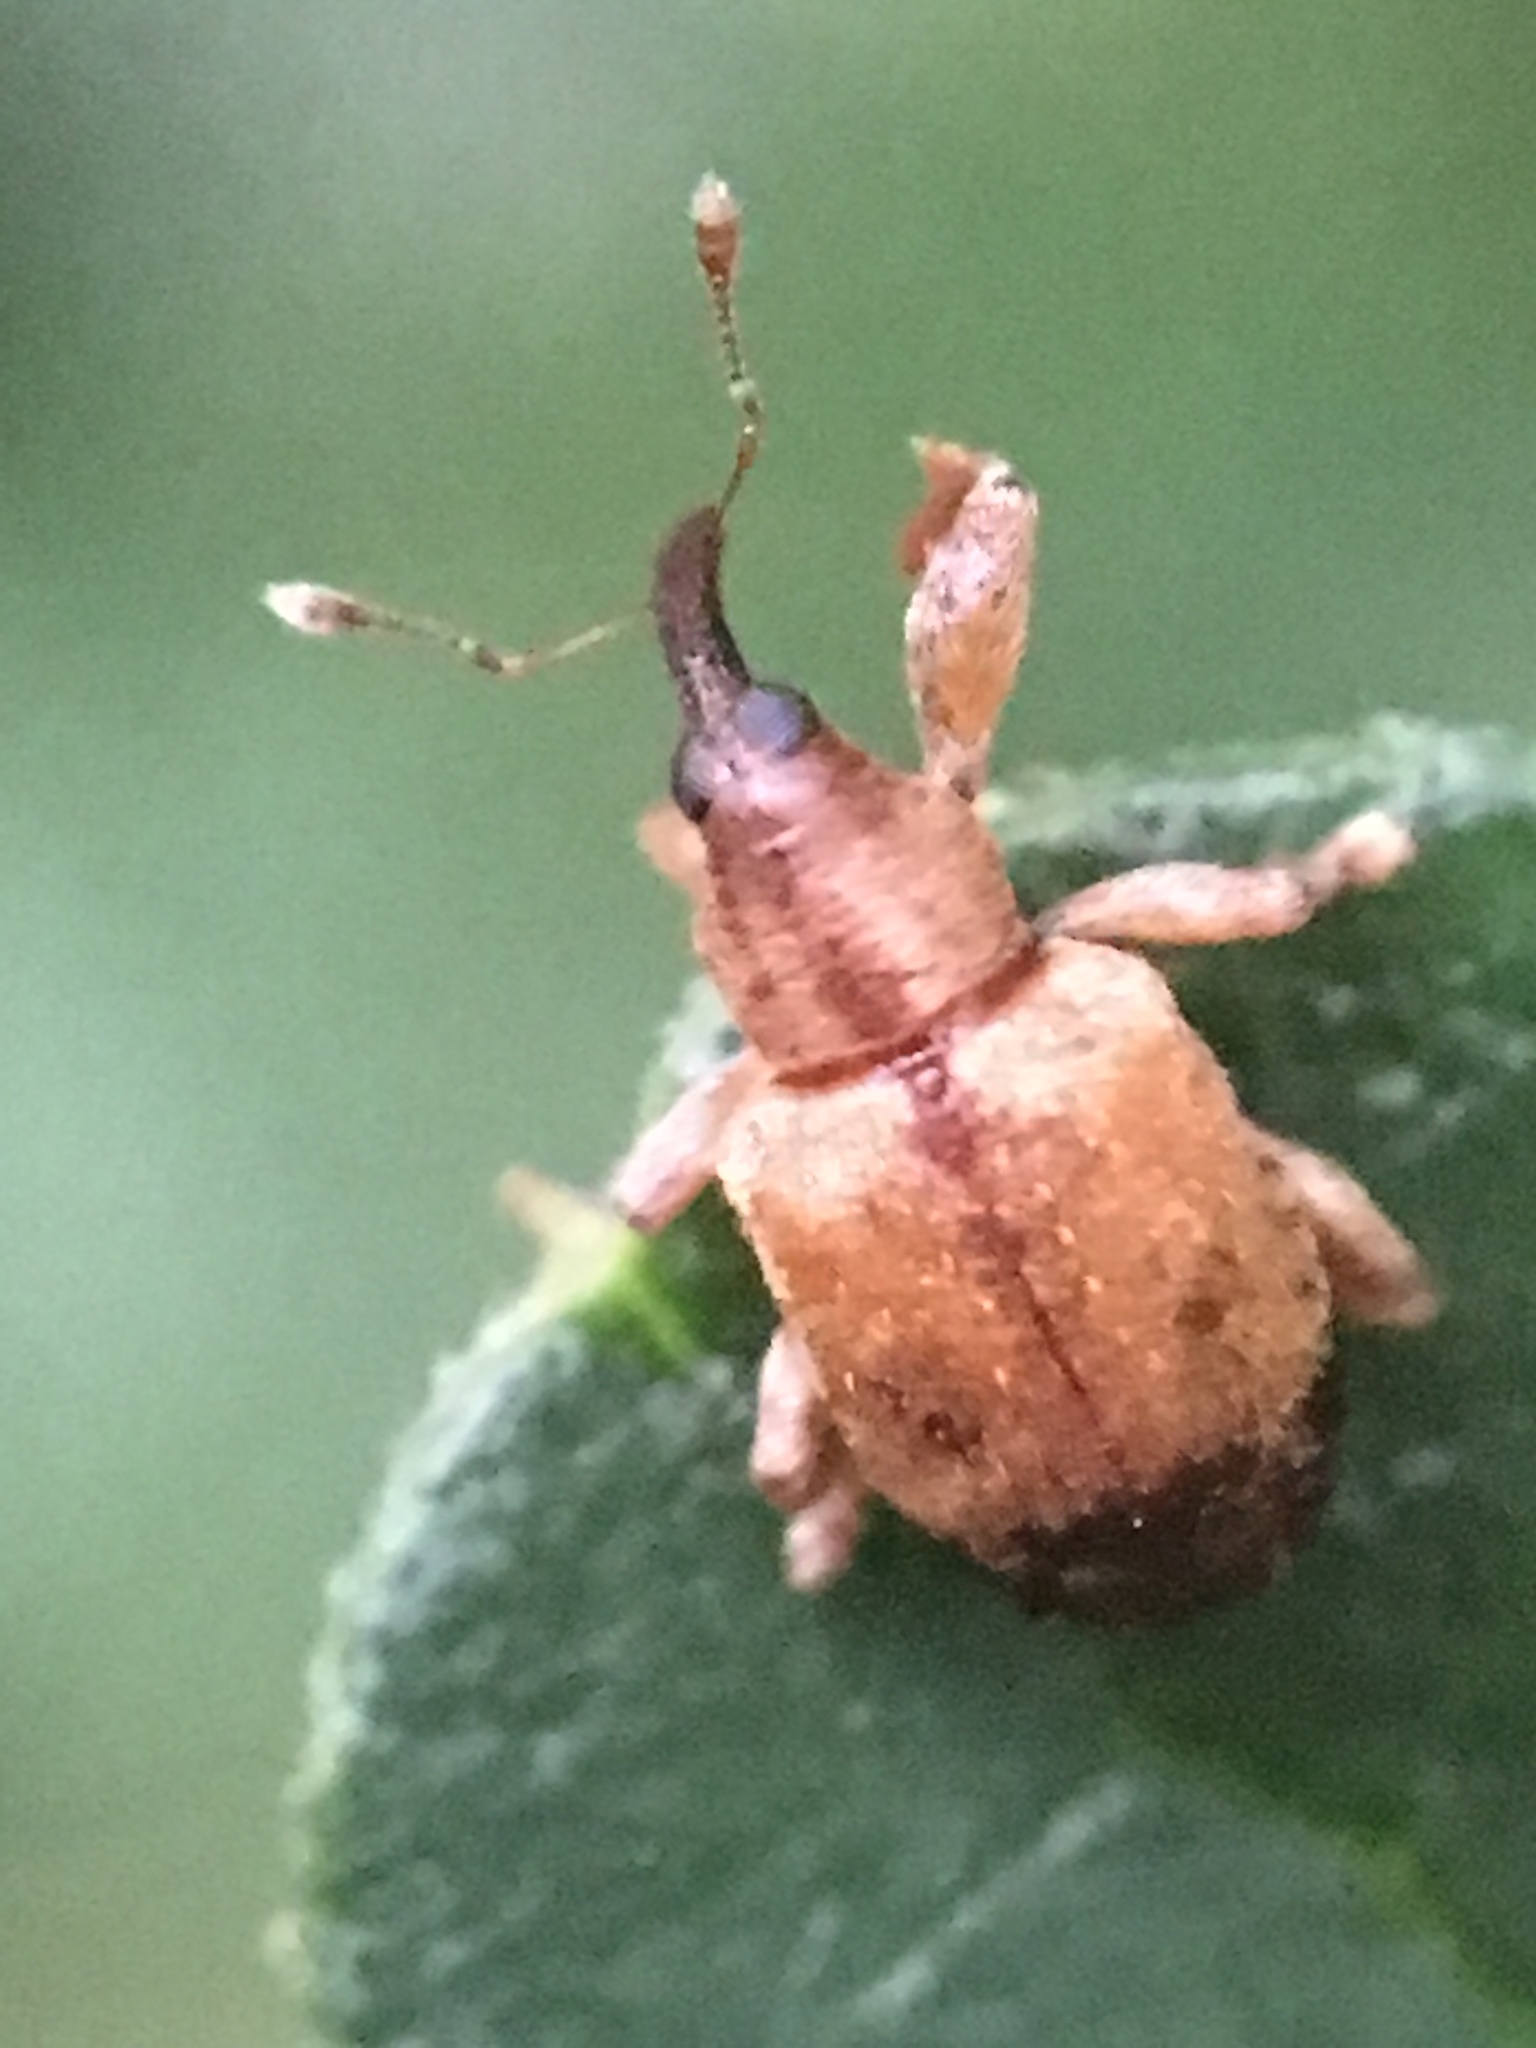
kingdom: Animalia
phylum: Arthropoda
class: Insecta
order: Coleoptera
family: Curculionidae
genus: Ochyromera
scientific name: Ochyromera ligustri
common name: Weevil
